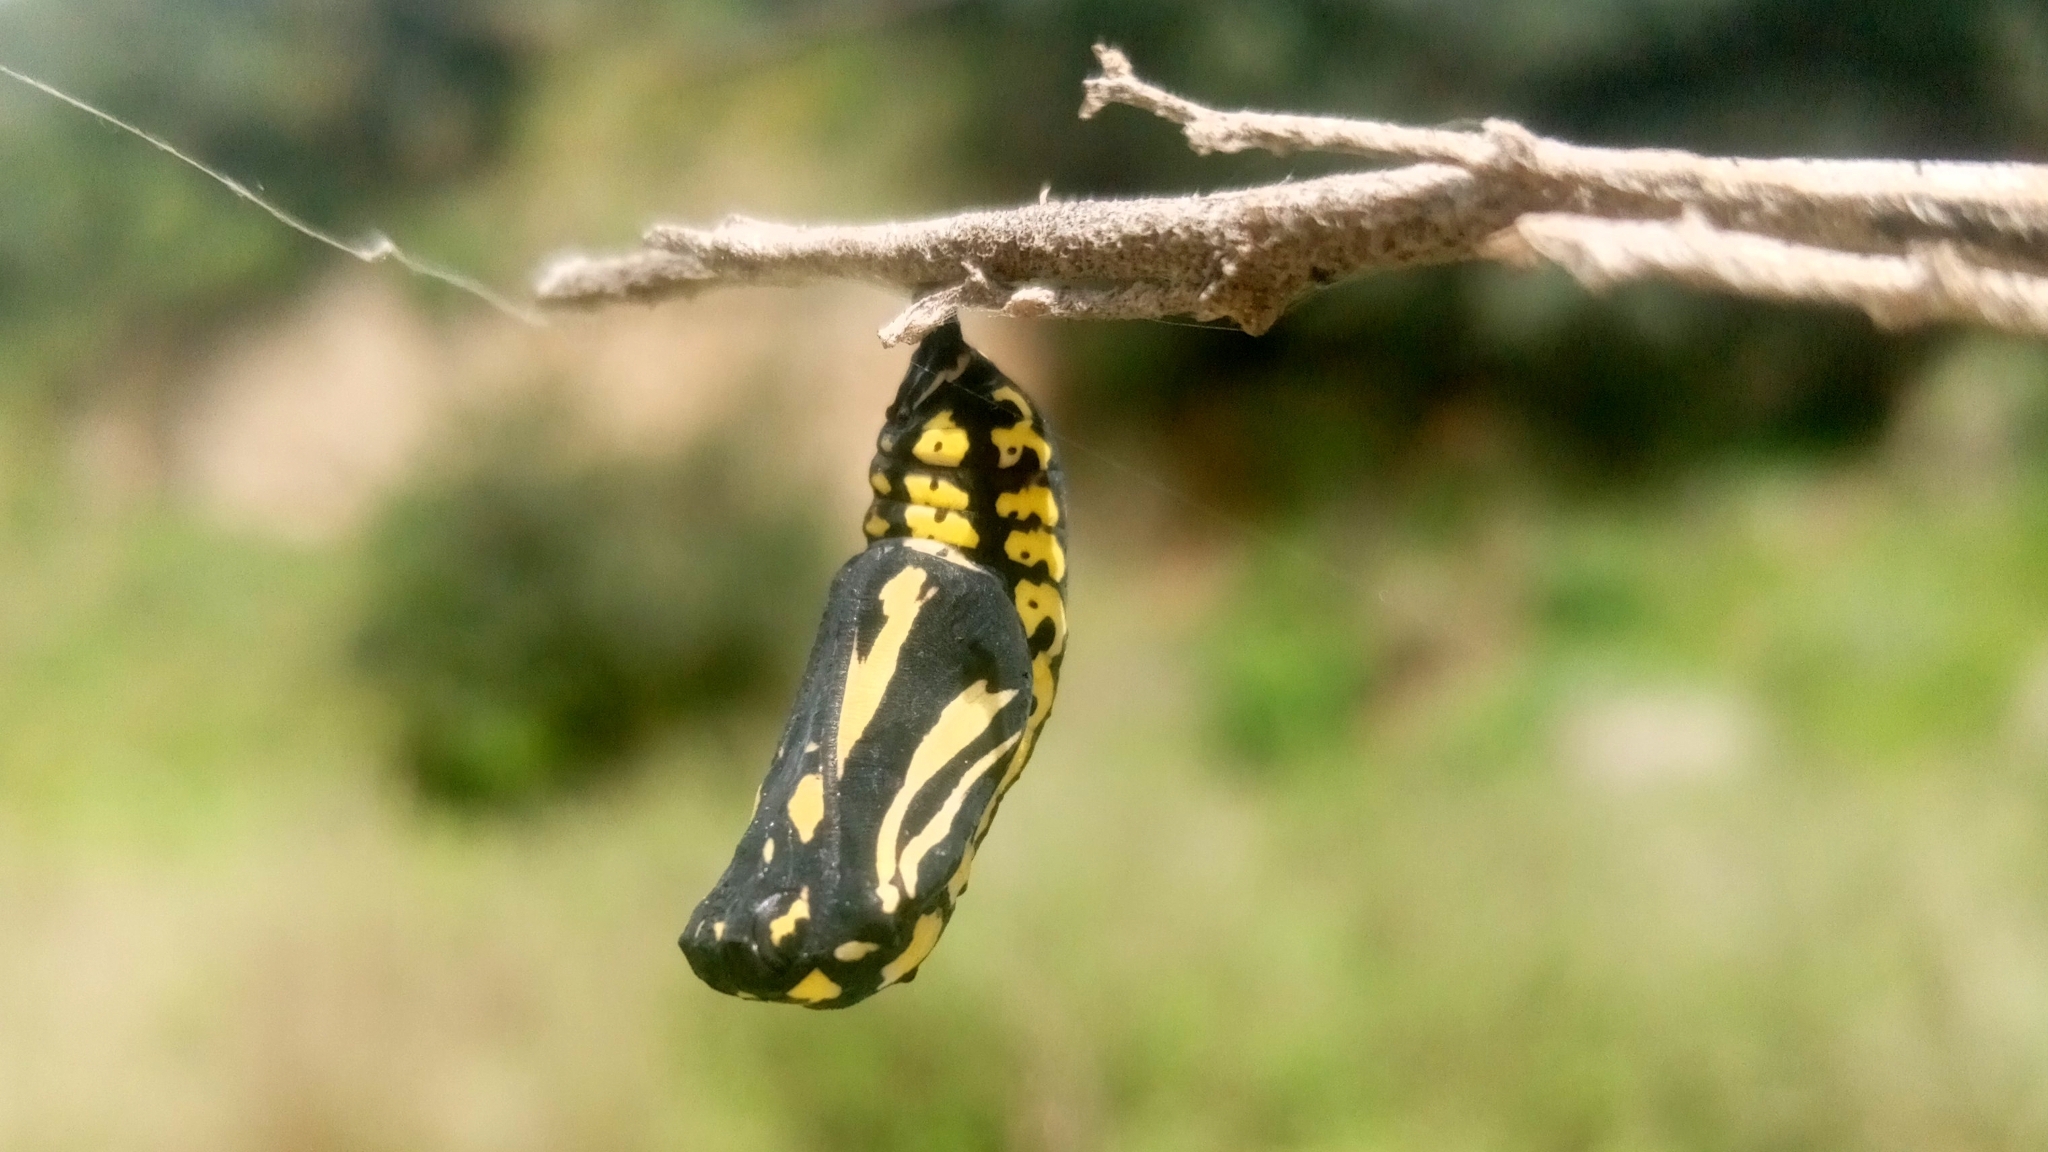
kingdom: Animalia
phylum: Arthropoda
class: Insecta
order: Lepidoptera
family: Nymphalidae
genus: Chlosyne
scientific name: Chlosyne ehrenbergii
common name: White-rayed patch
